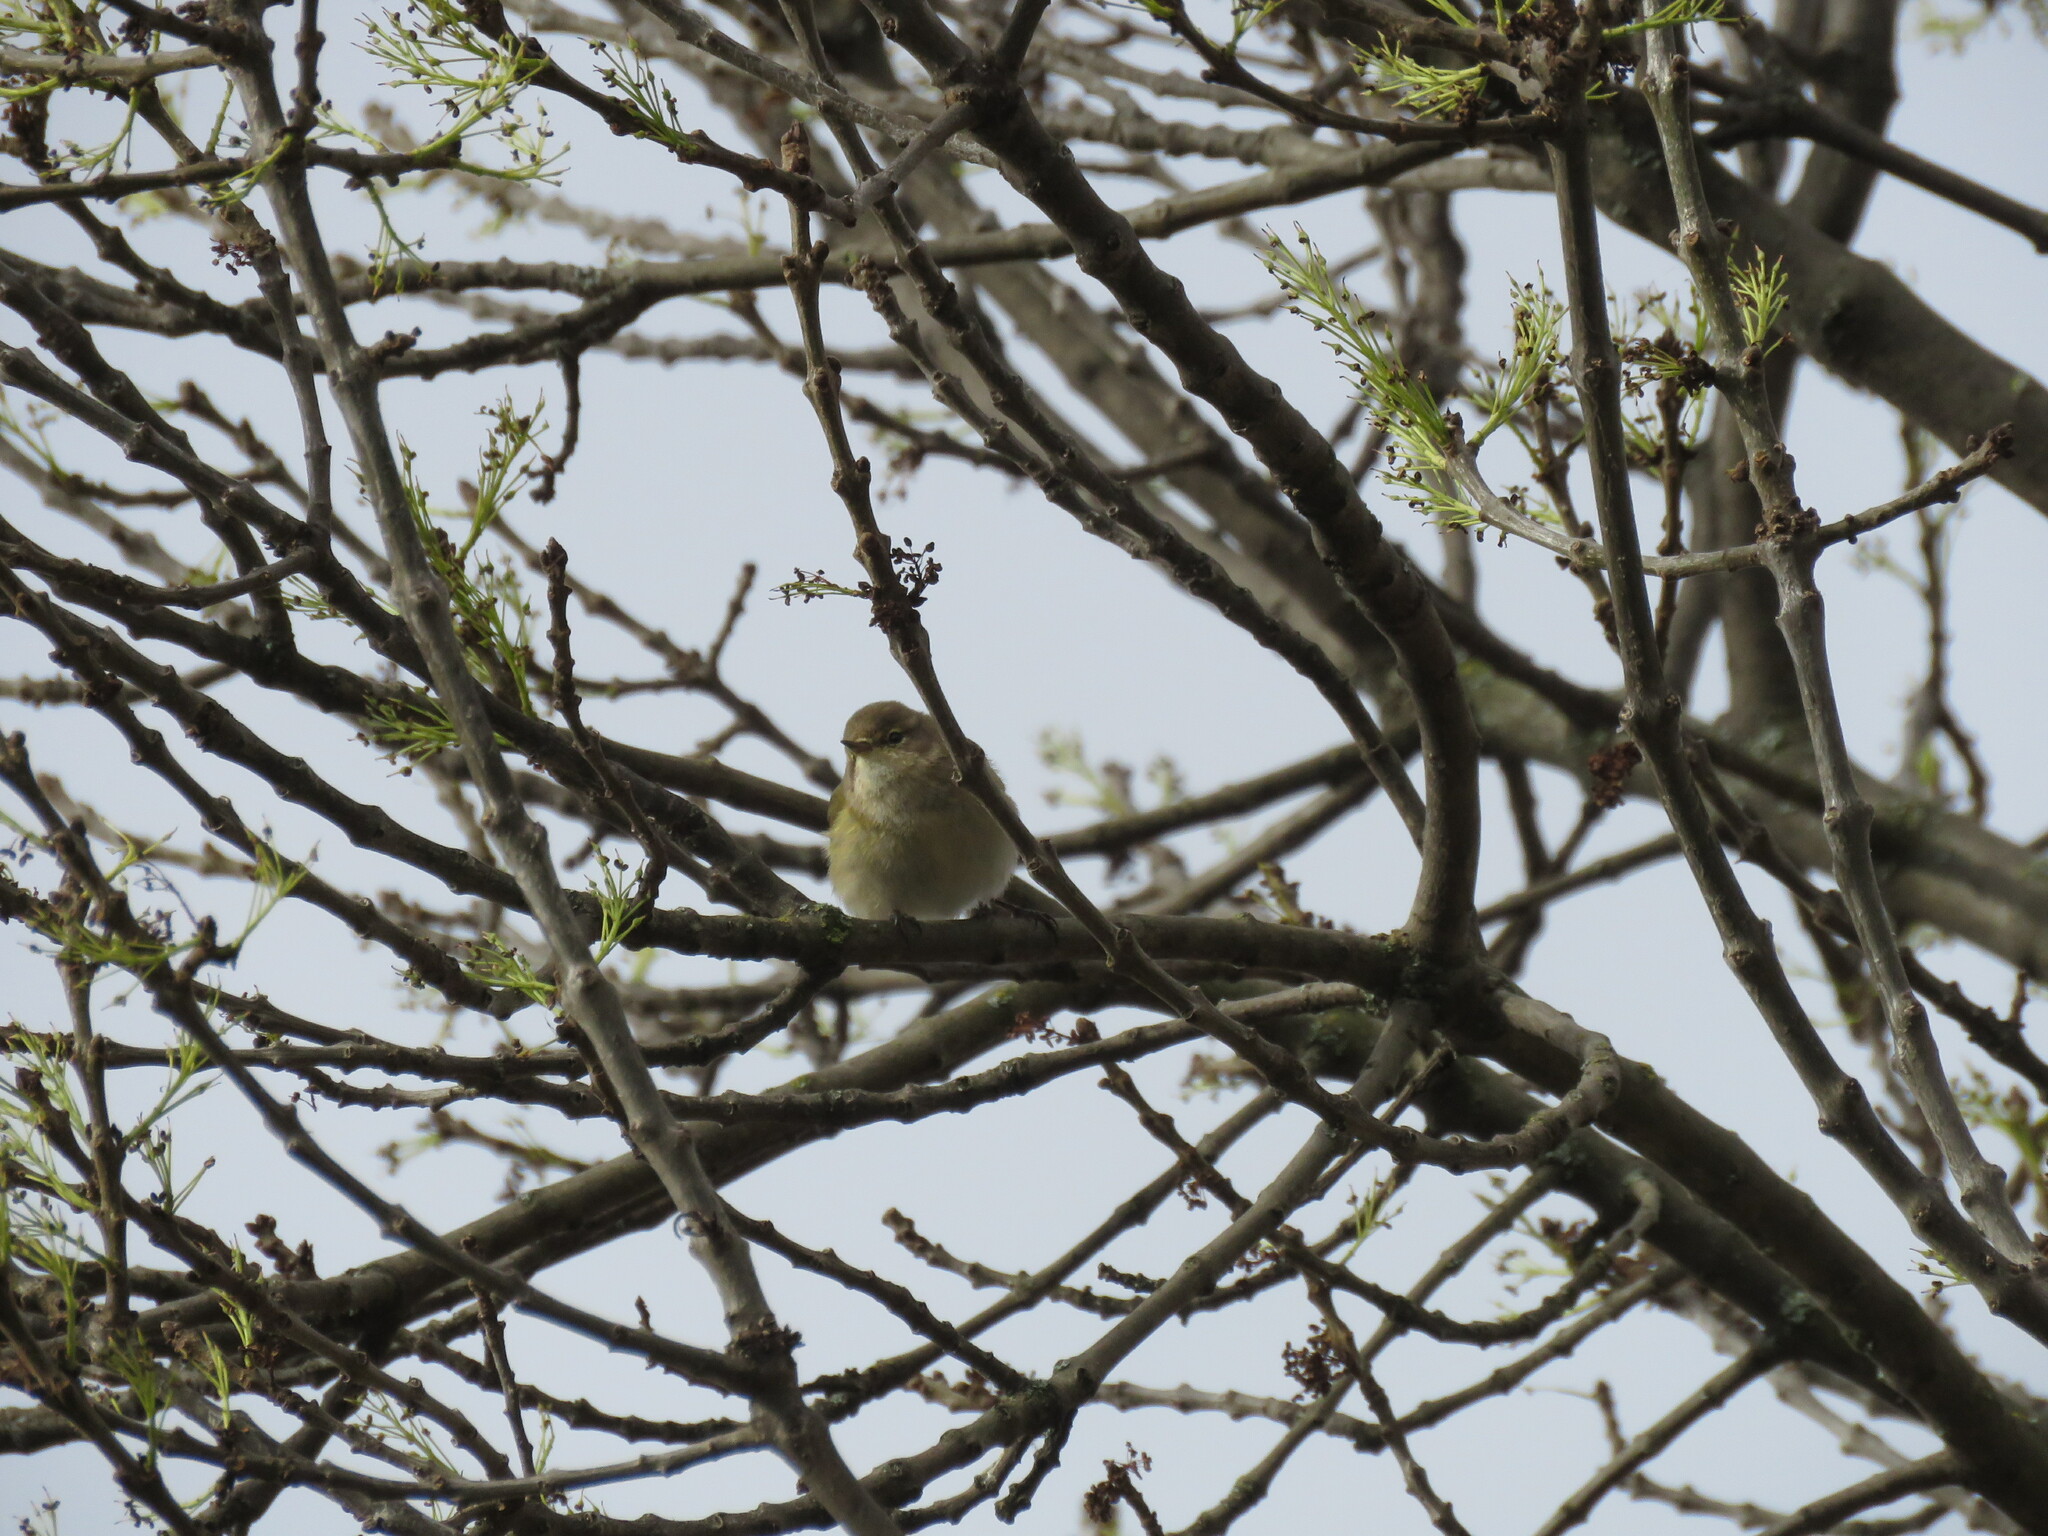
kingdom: Animalia
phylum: Chordata
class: Aves
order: Passeriformes
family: Phylloscopidae
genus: Phylloscopus
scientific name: Phylloscopus collybita
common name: Common chiffchaff
